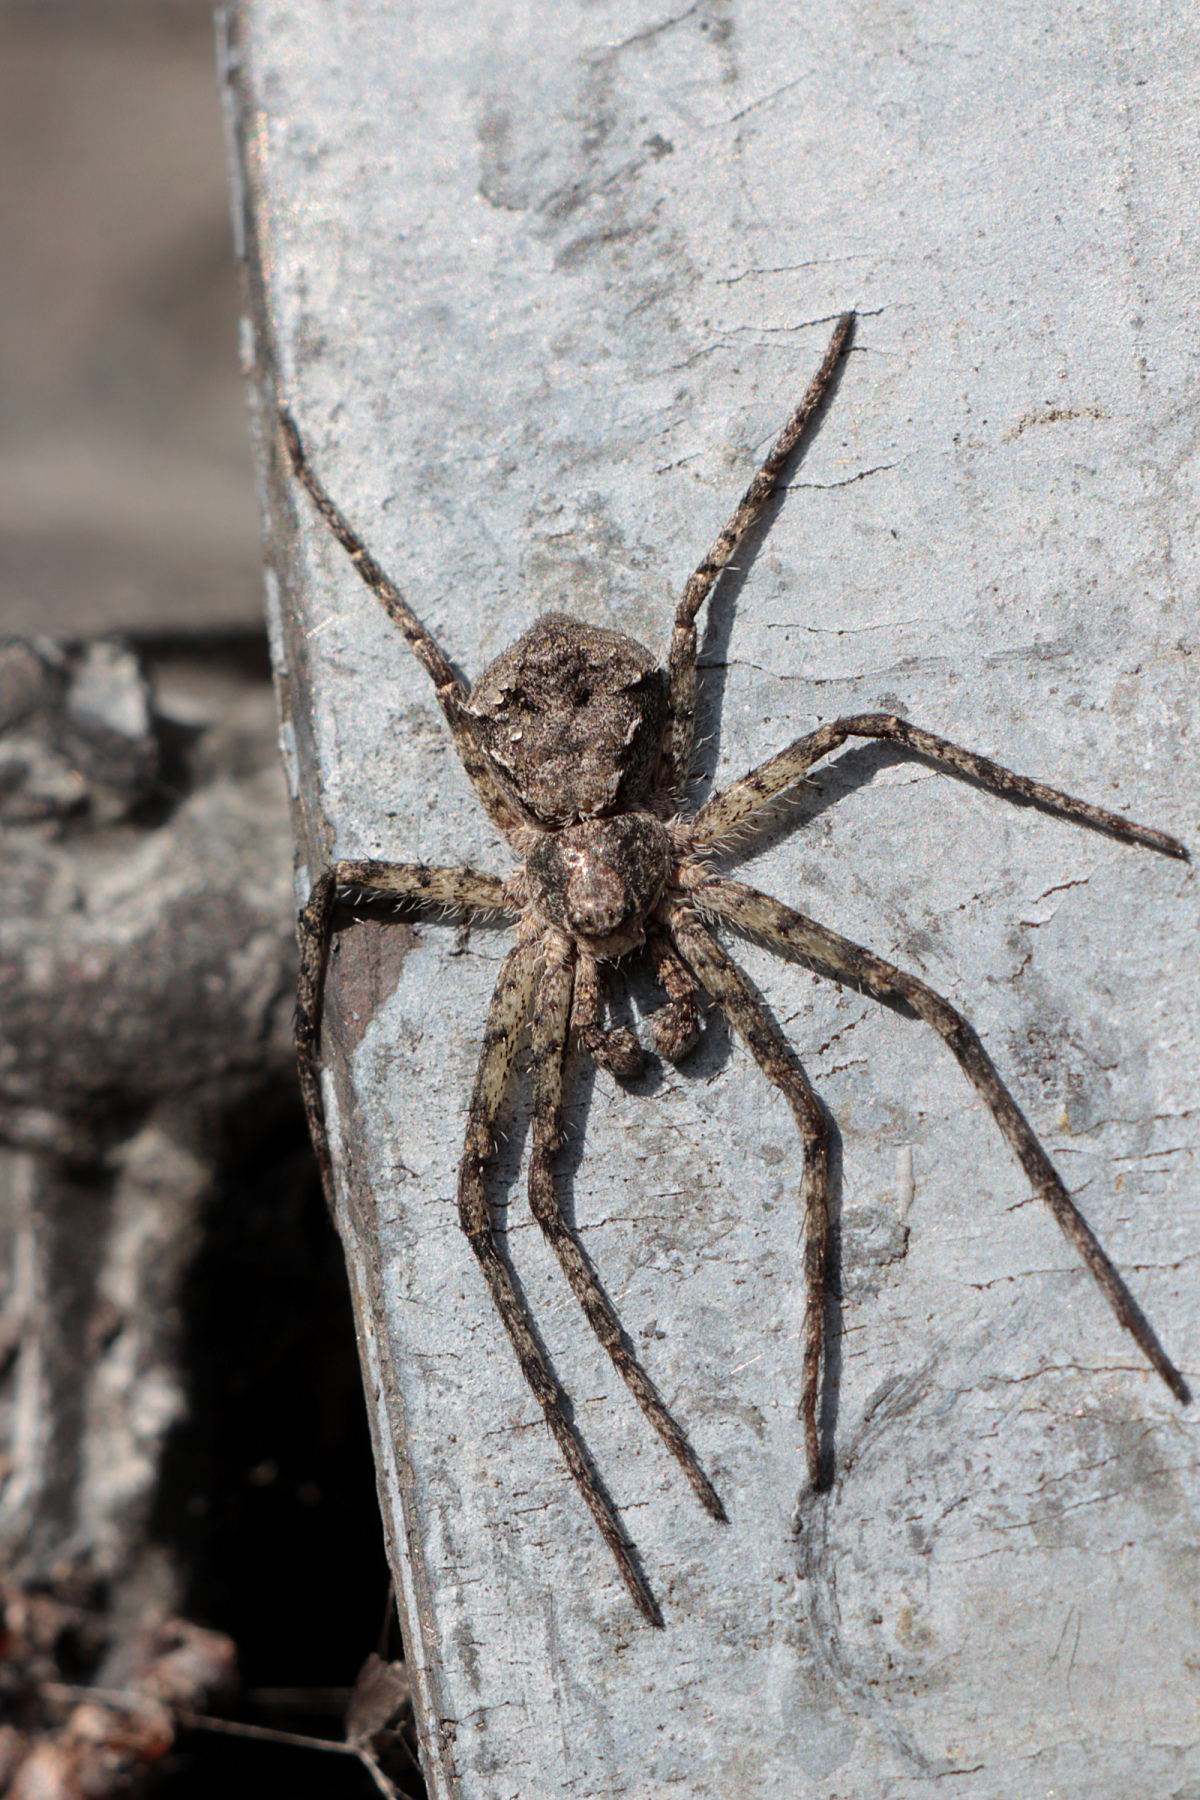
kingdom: Animalia
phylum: Arthropoda
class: Arachnida
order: Araneae
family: Philodromidae
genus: Philodromus
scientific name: Philodromus margaritatus
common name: Lichen running-spider
